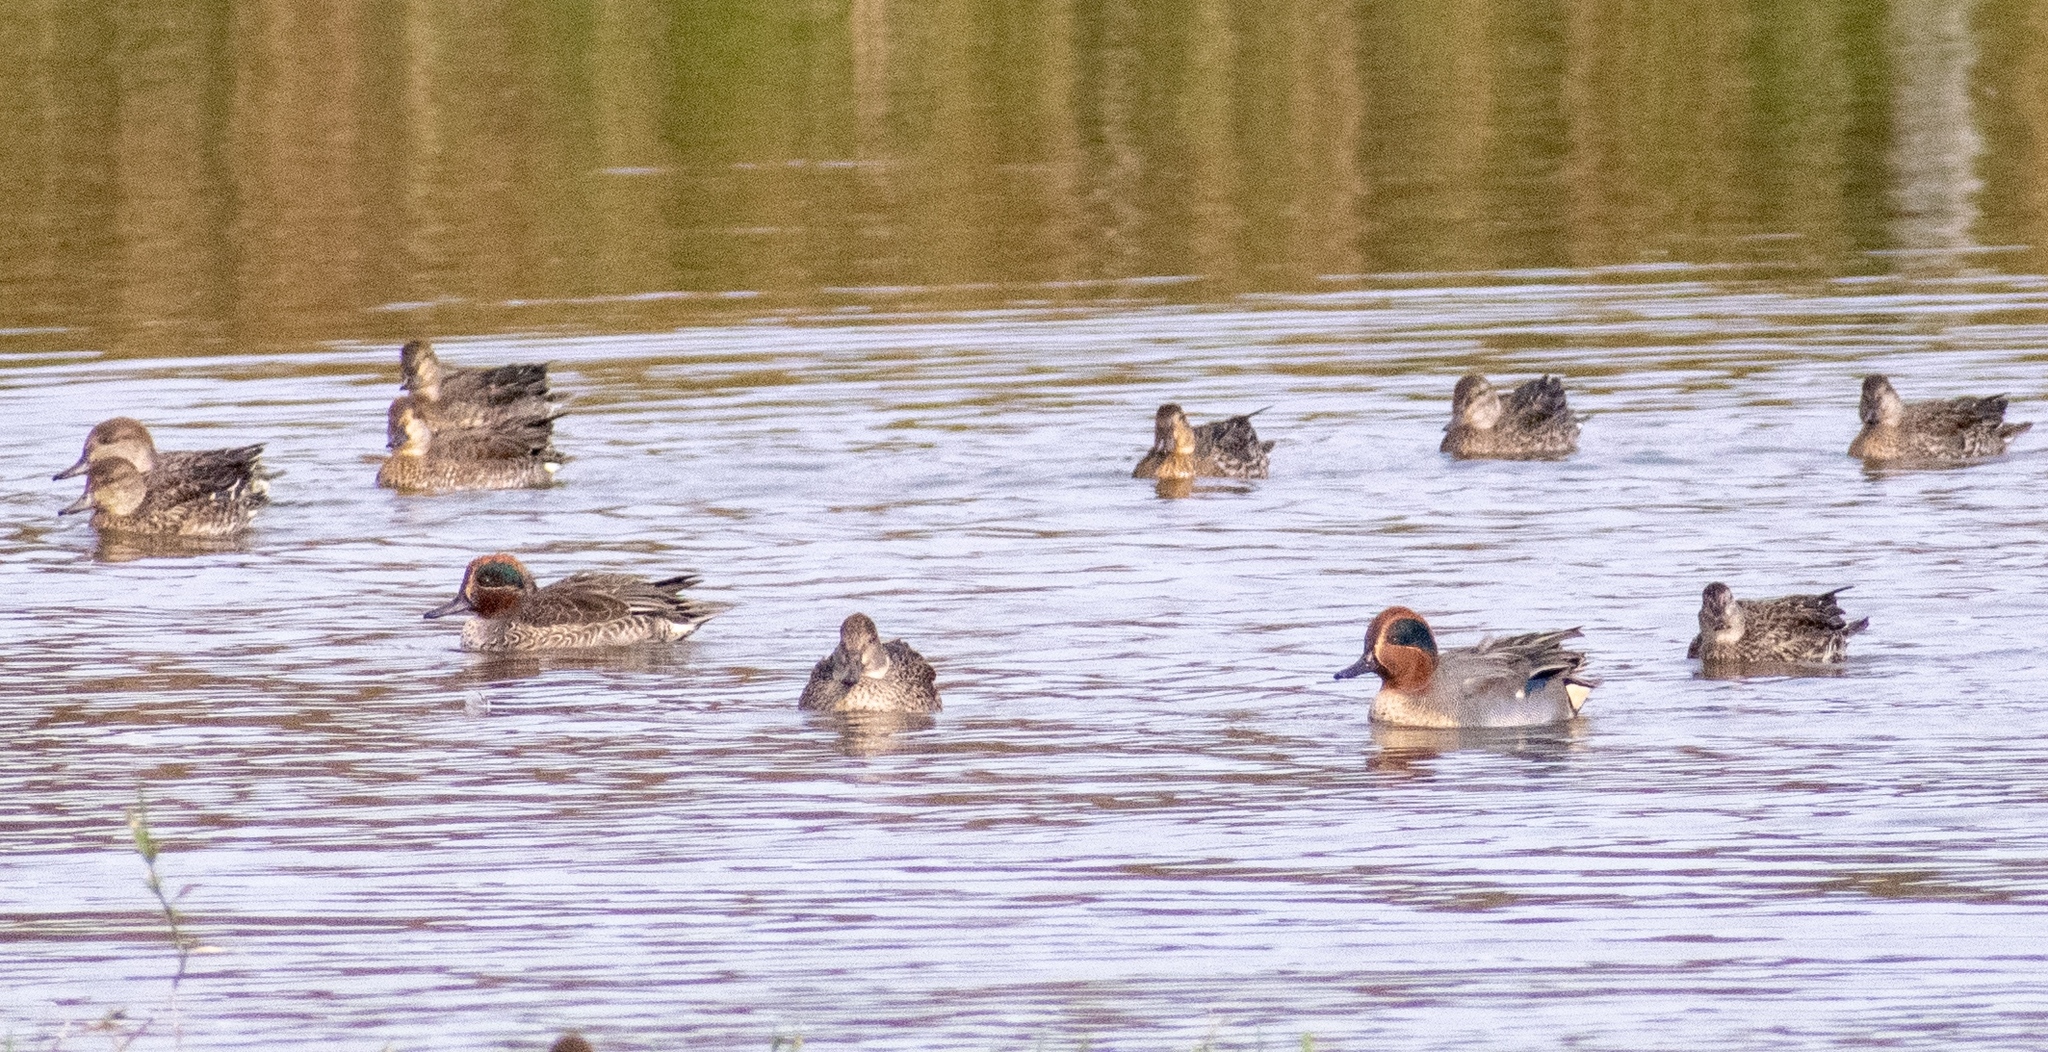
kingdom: Animalia
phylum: Chordata
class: Aves
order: Anseriformes
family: Anatidae
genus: Anas
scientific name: Anas crecca
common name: Eurasian teal
